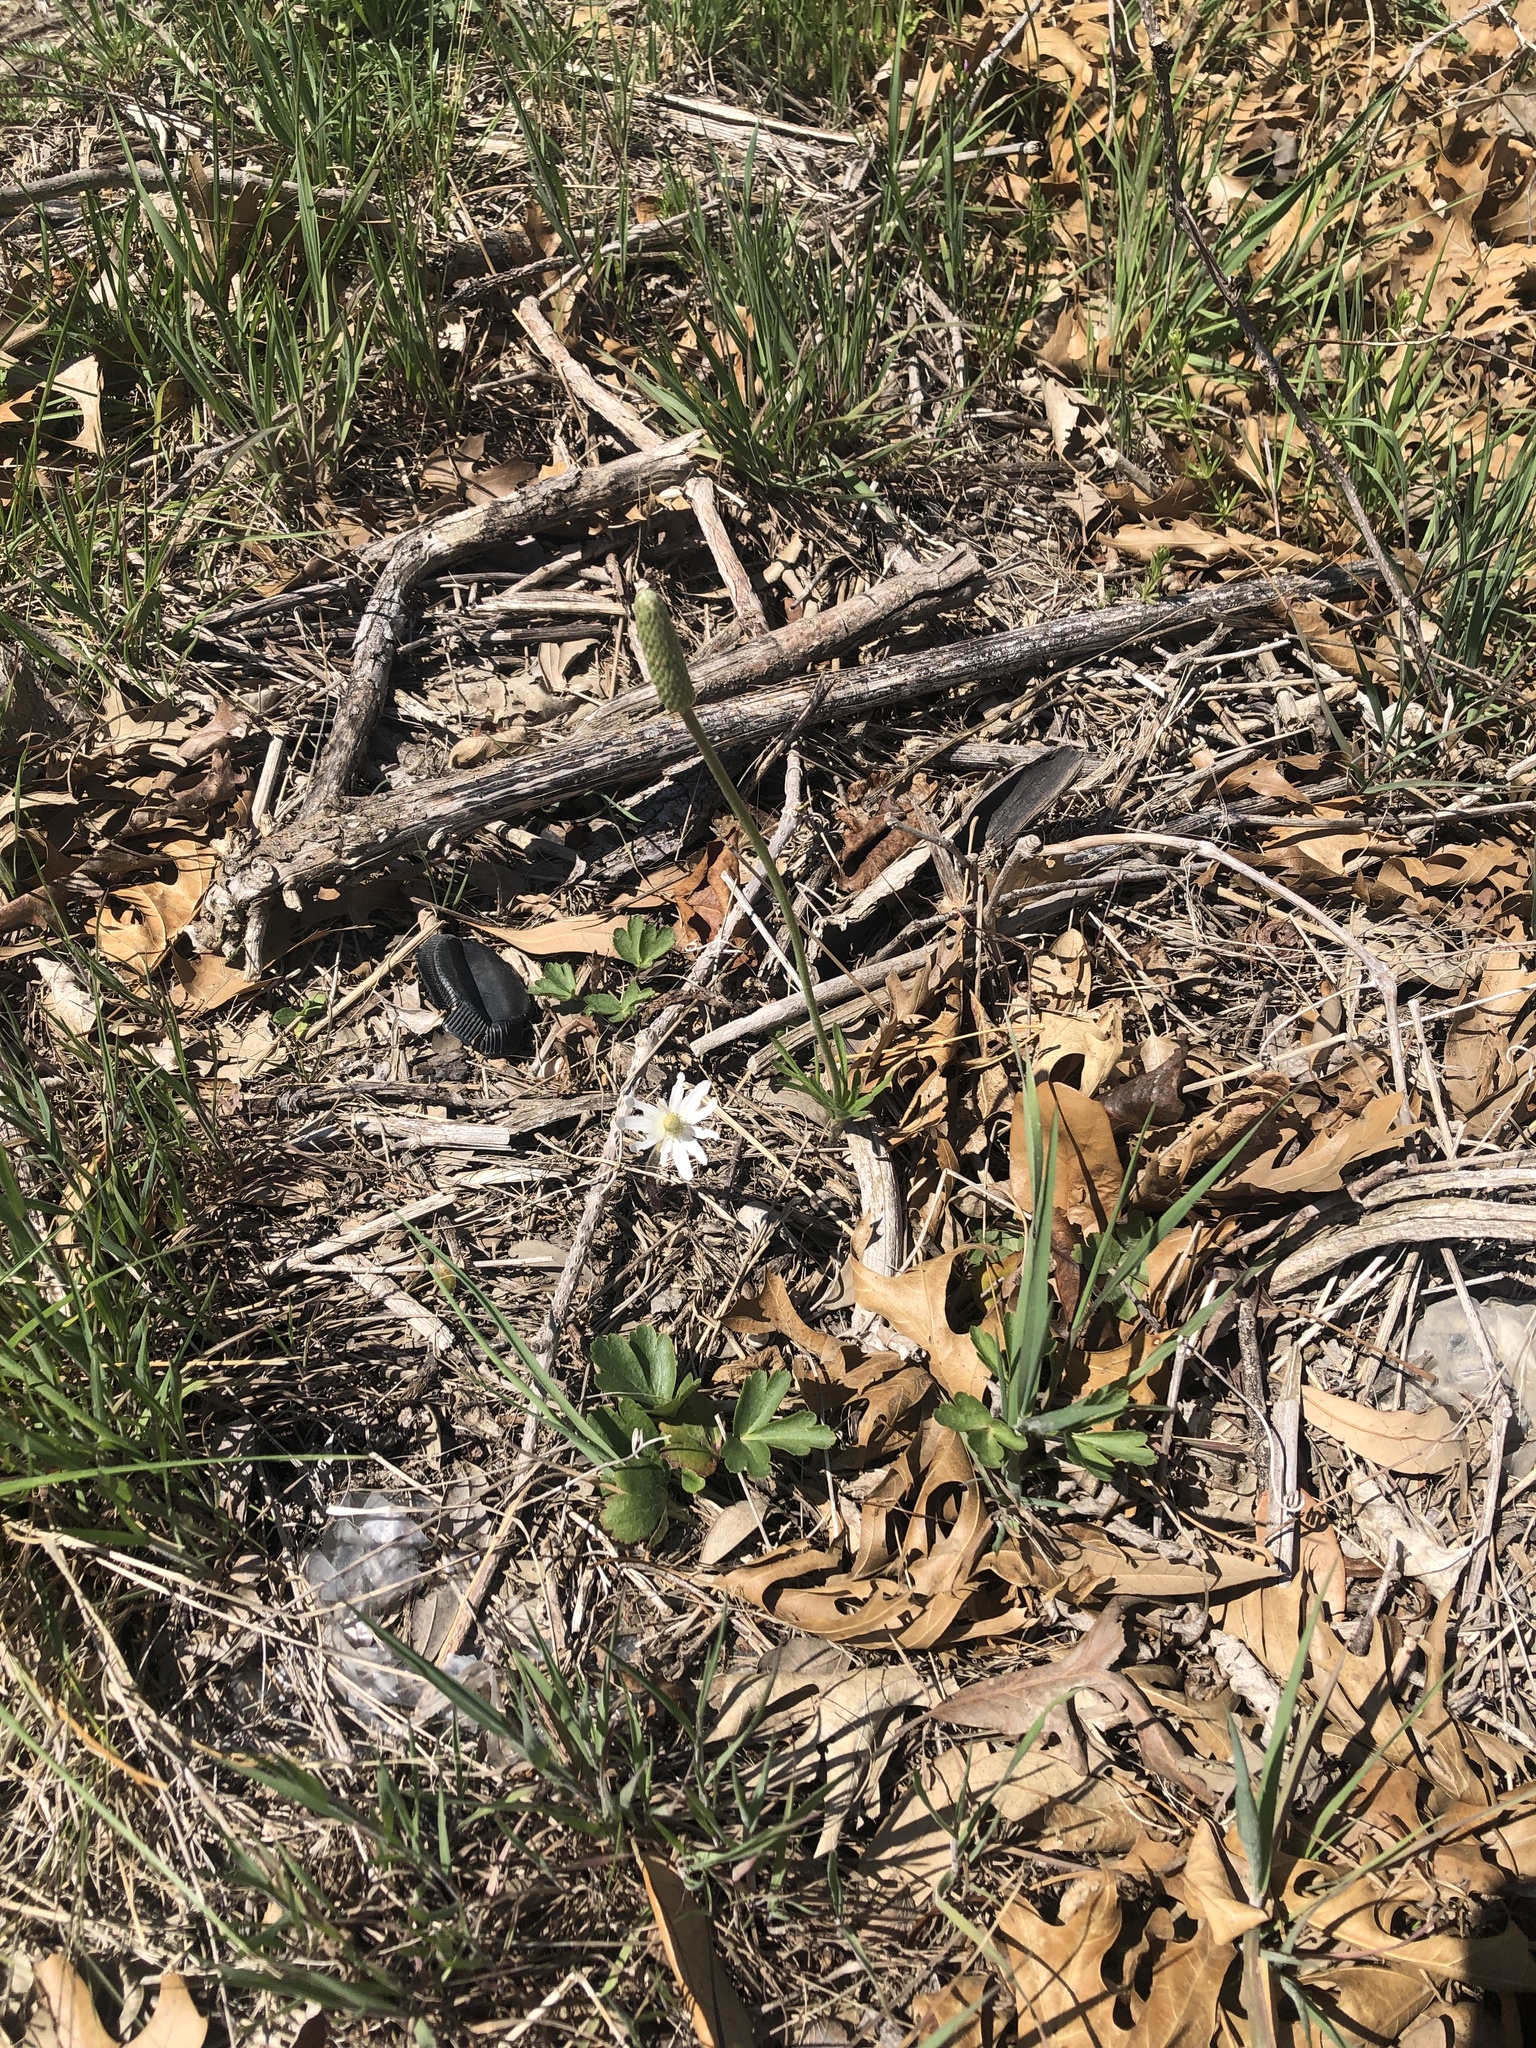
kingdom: Plantae
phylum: Tracheophyta
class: Magnoliopsida
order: Ranunculales
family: Ranunculaceae
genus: Anemone
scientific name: Anemone berlandieri
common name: Ten-petal anemone
